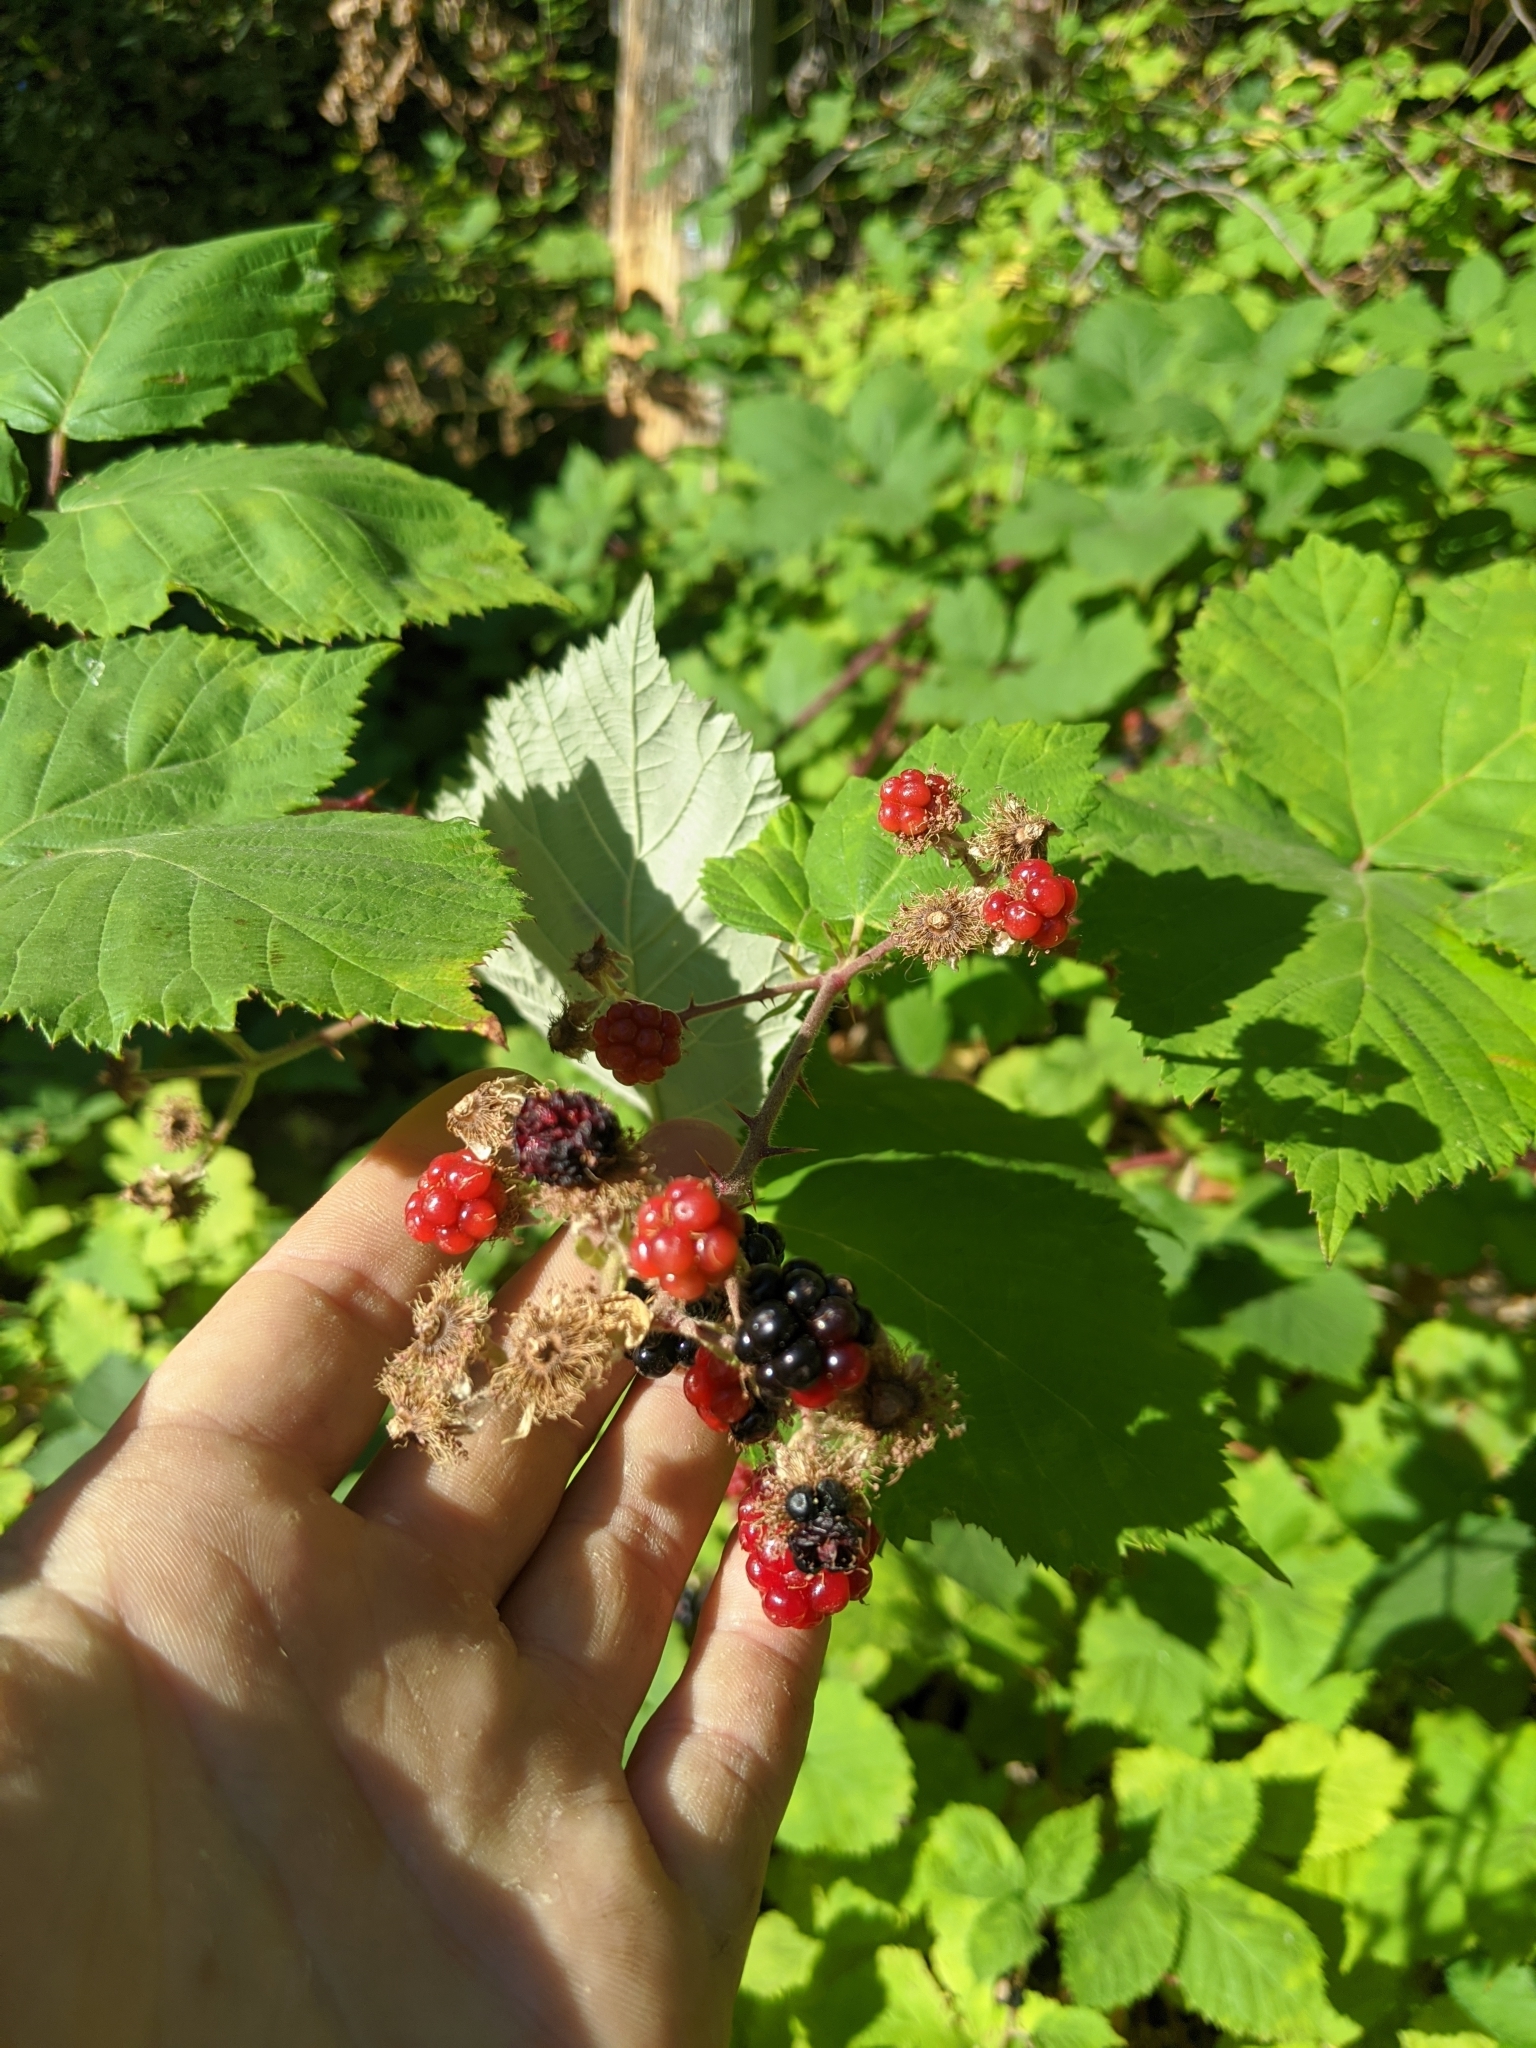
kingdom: Plantae
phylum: Tracheophyta
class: Magnoliopsida
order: Rosales
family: Rosaceae
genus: Rubus
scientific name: Rubus bifrons
